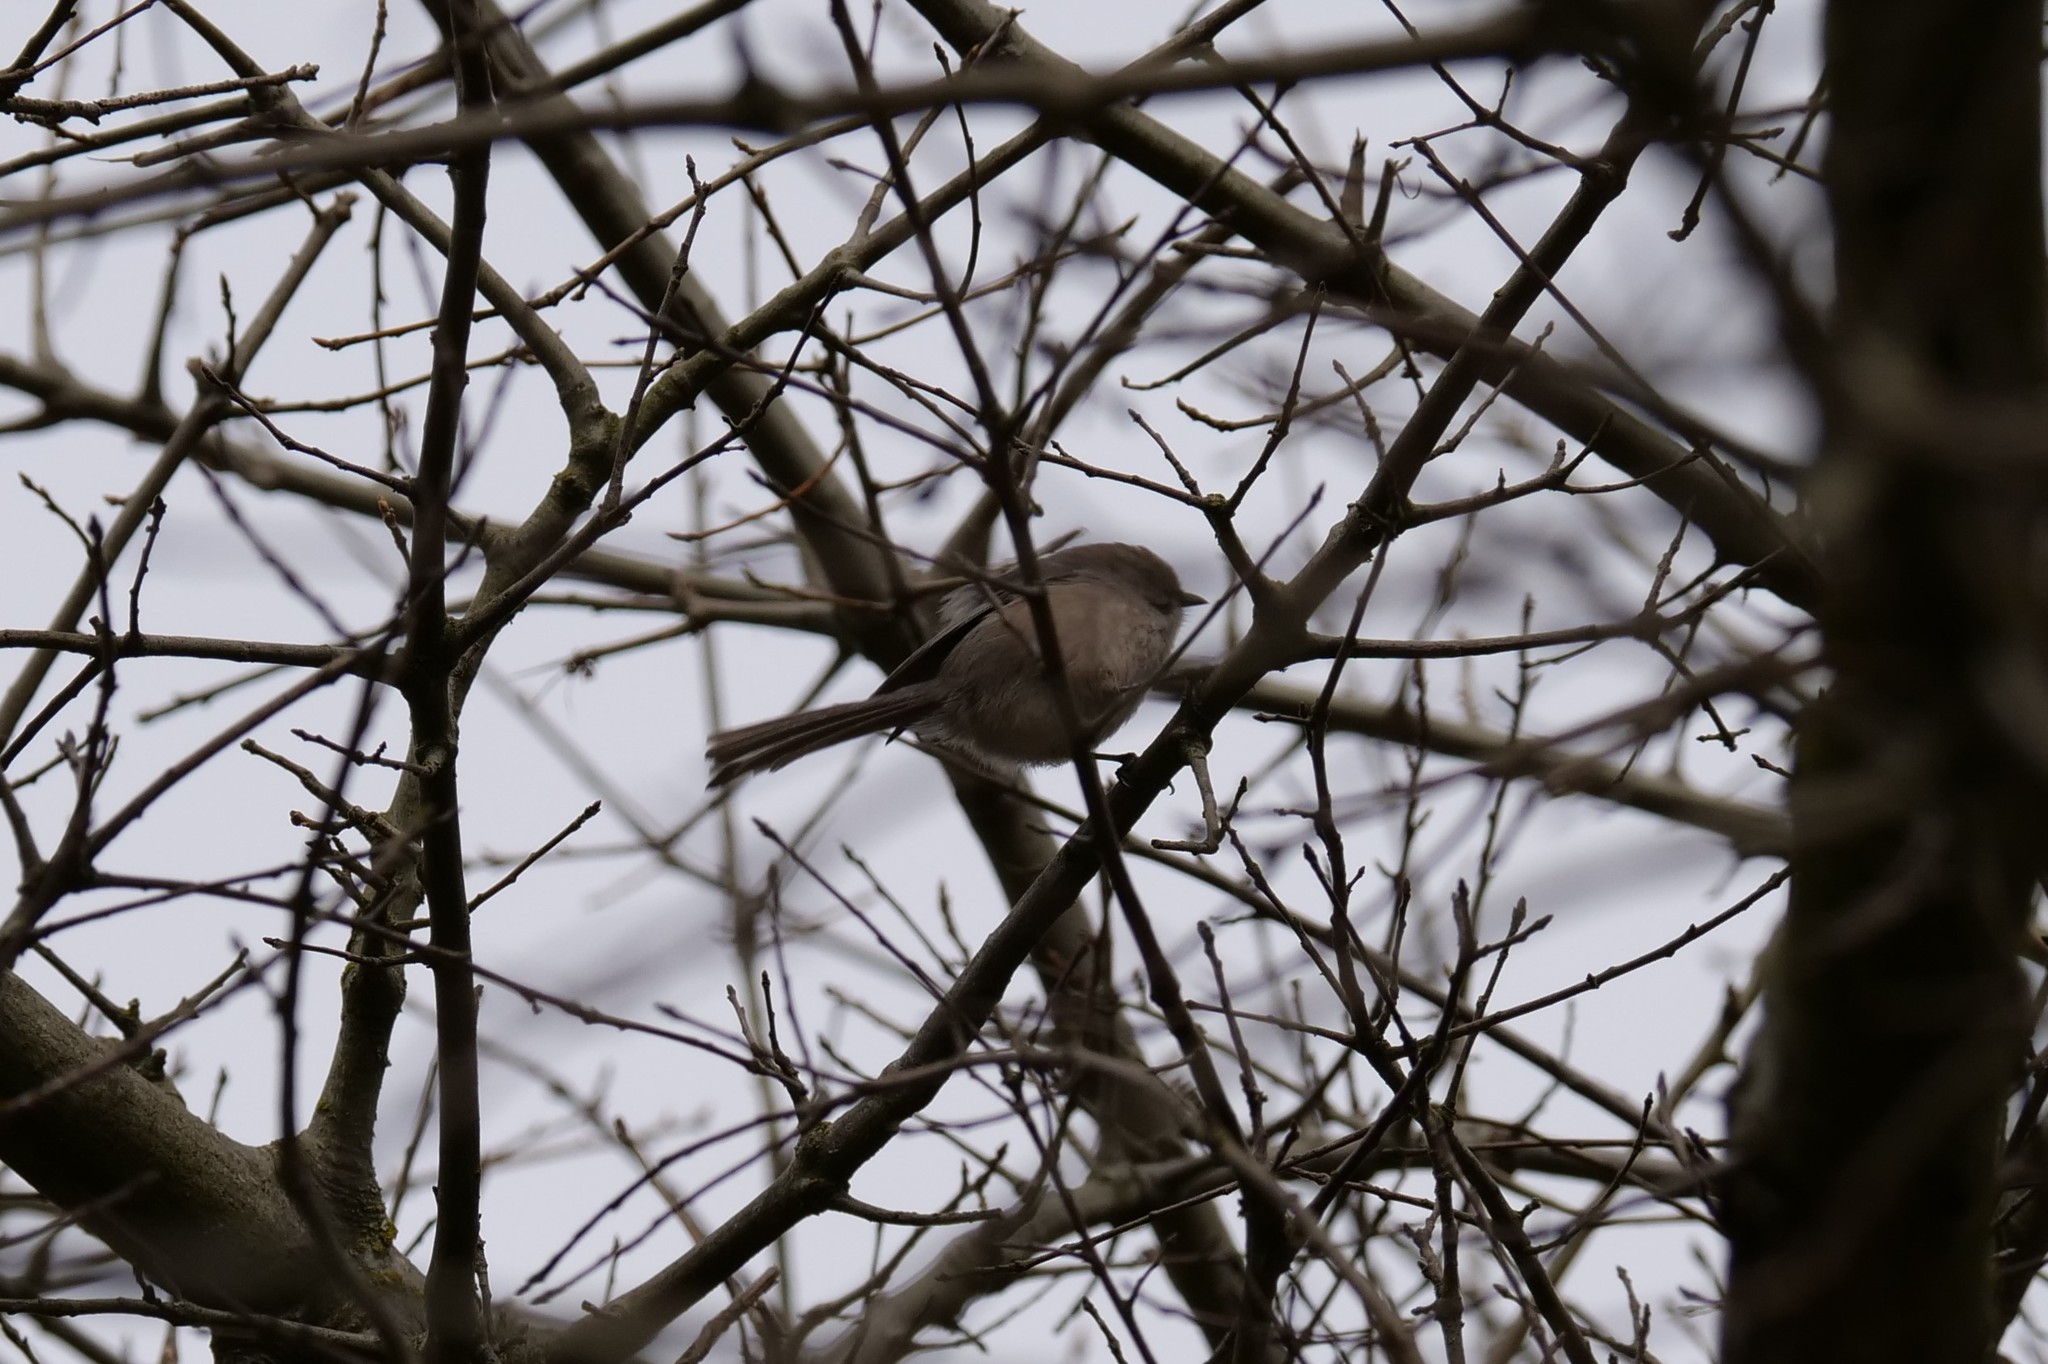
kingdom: Animalia
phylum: Chordata
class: Aves
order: Passeriformes
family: Aegithalidae
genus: Psaltriparus
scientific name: Psaltriparus minimus
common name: American bushtit
